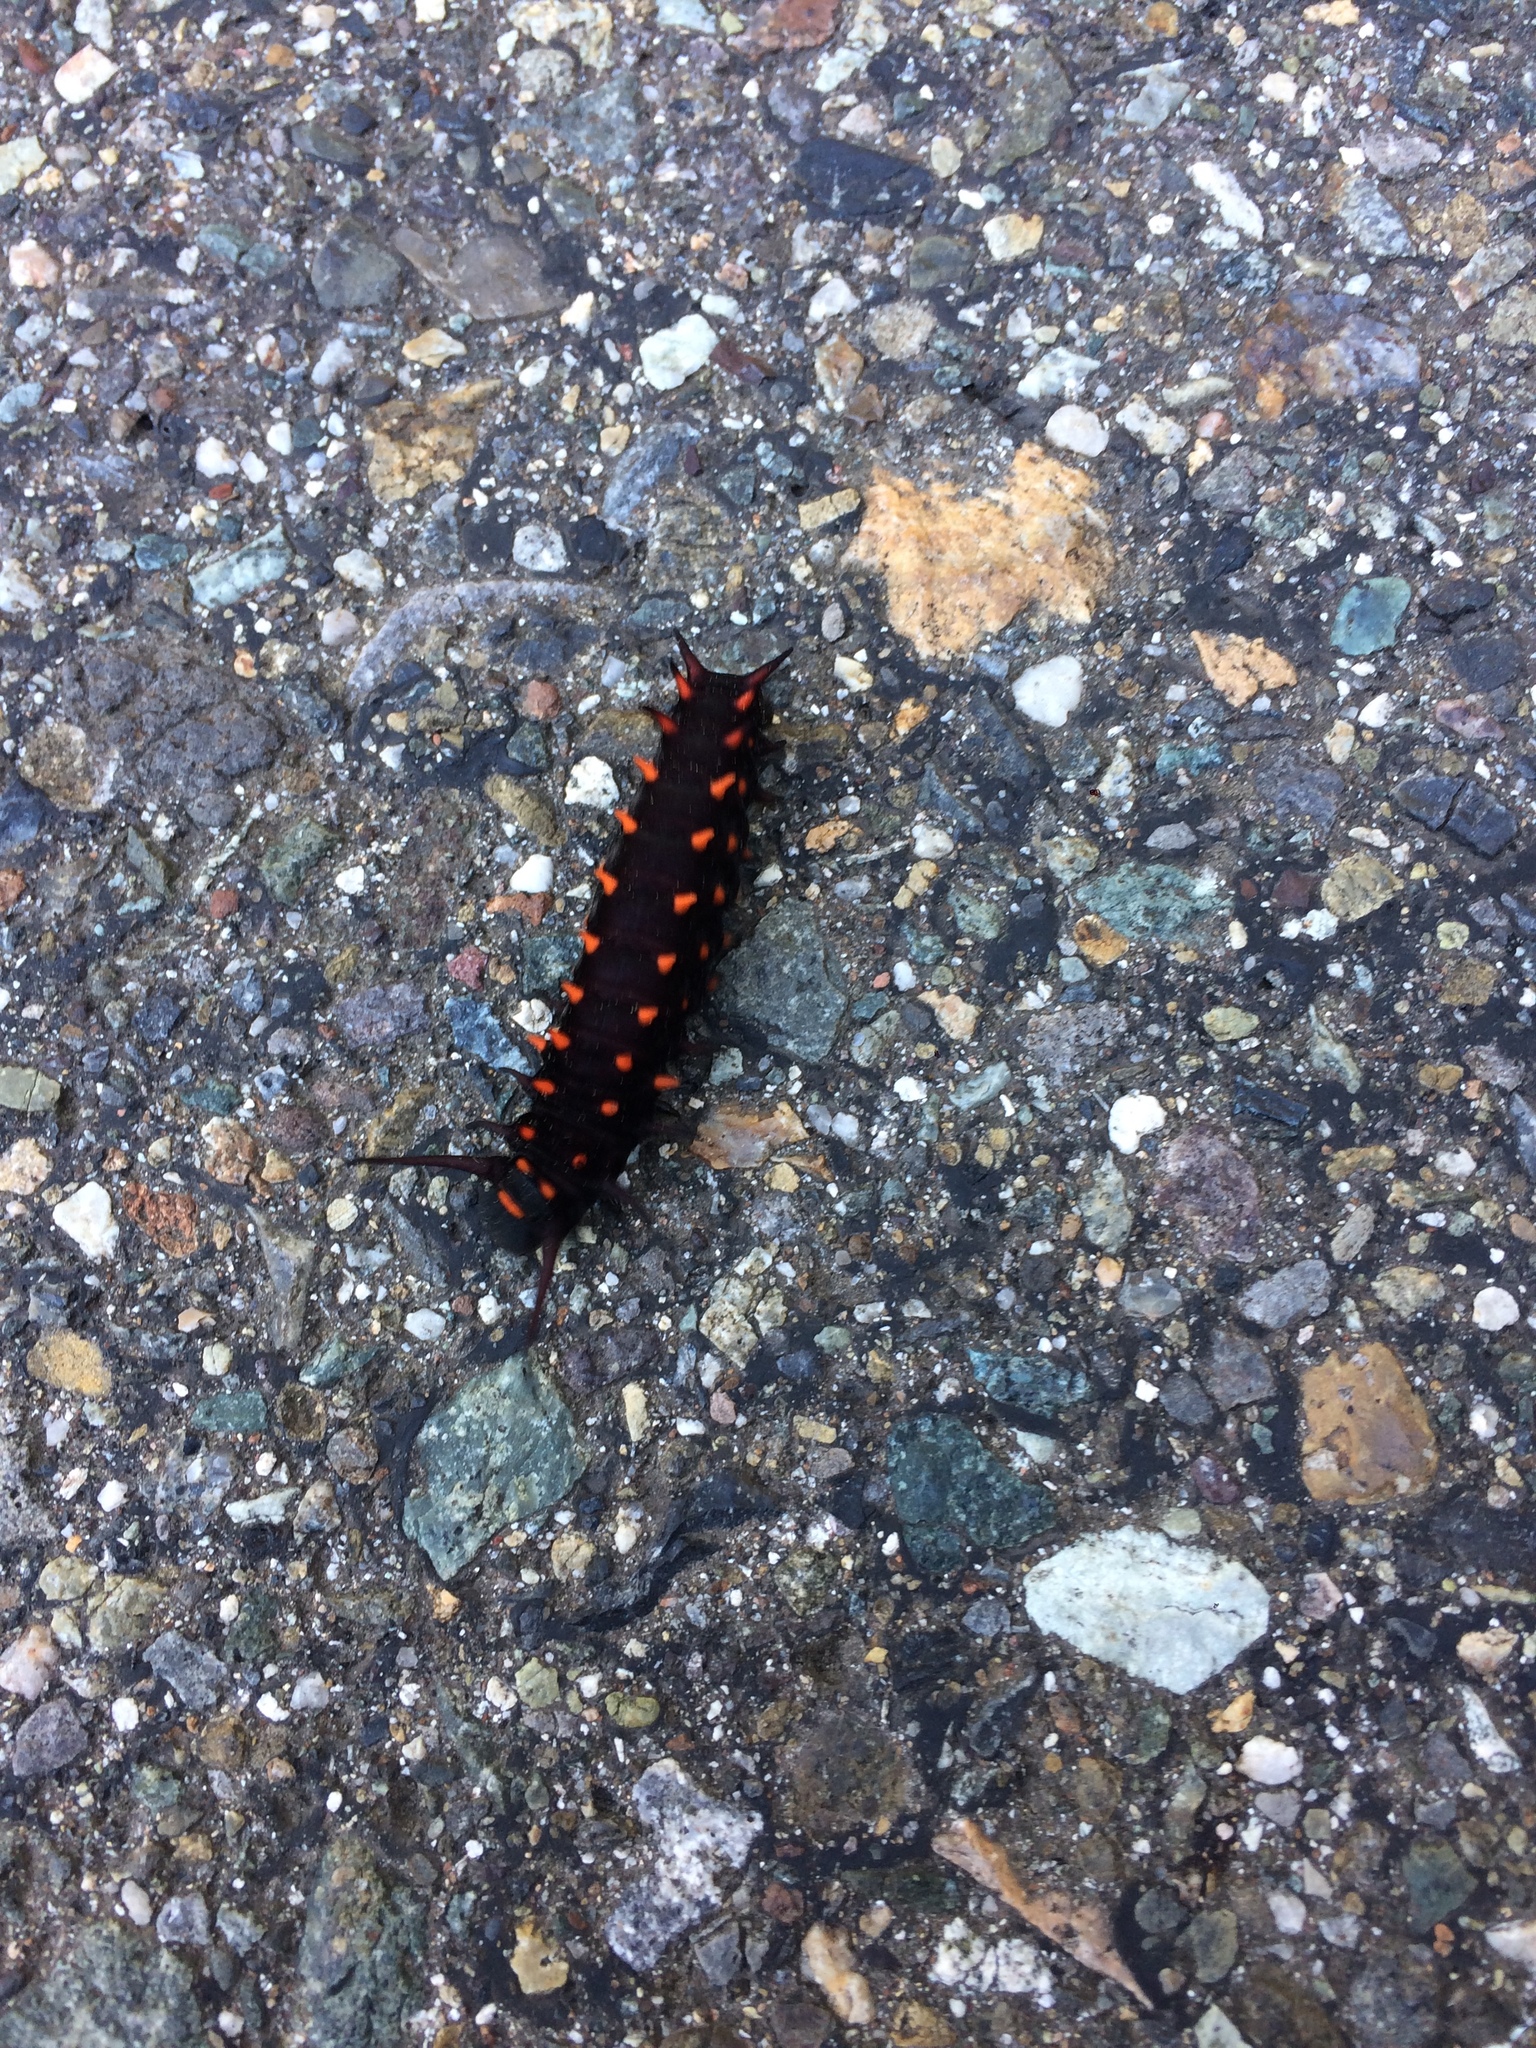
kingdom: Animalia
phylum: Arthropoda
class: Insecta
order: Lepidoptera
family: Papilionidae
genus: Battus
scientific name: Battus philenor
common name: Pipevine swallowtail
